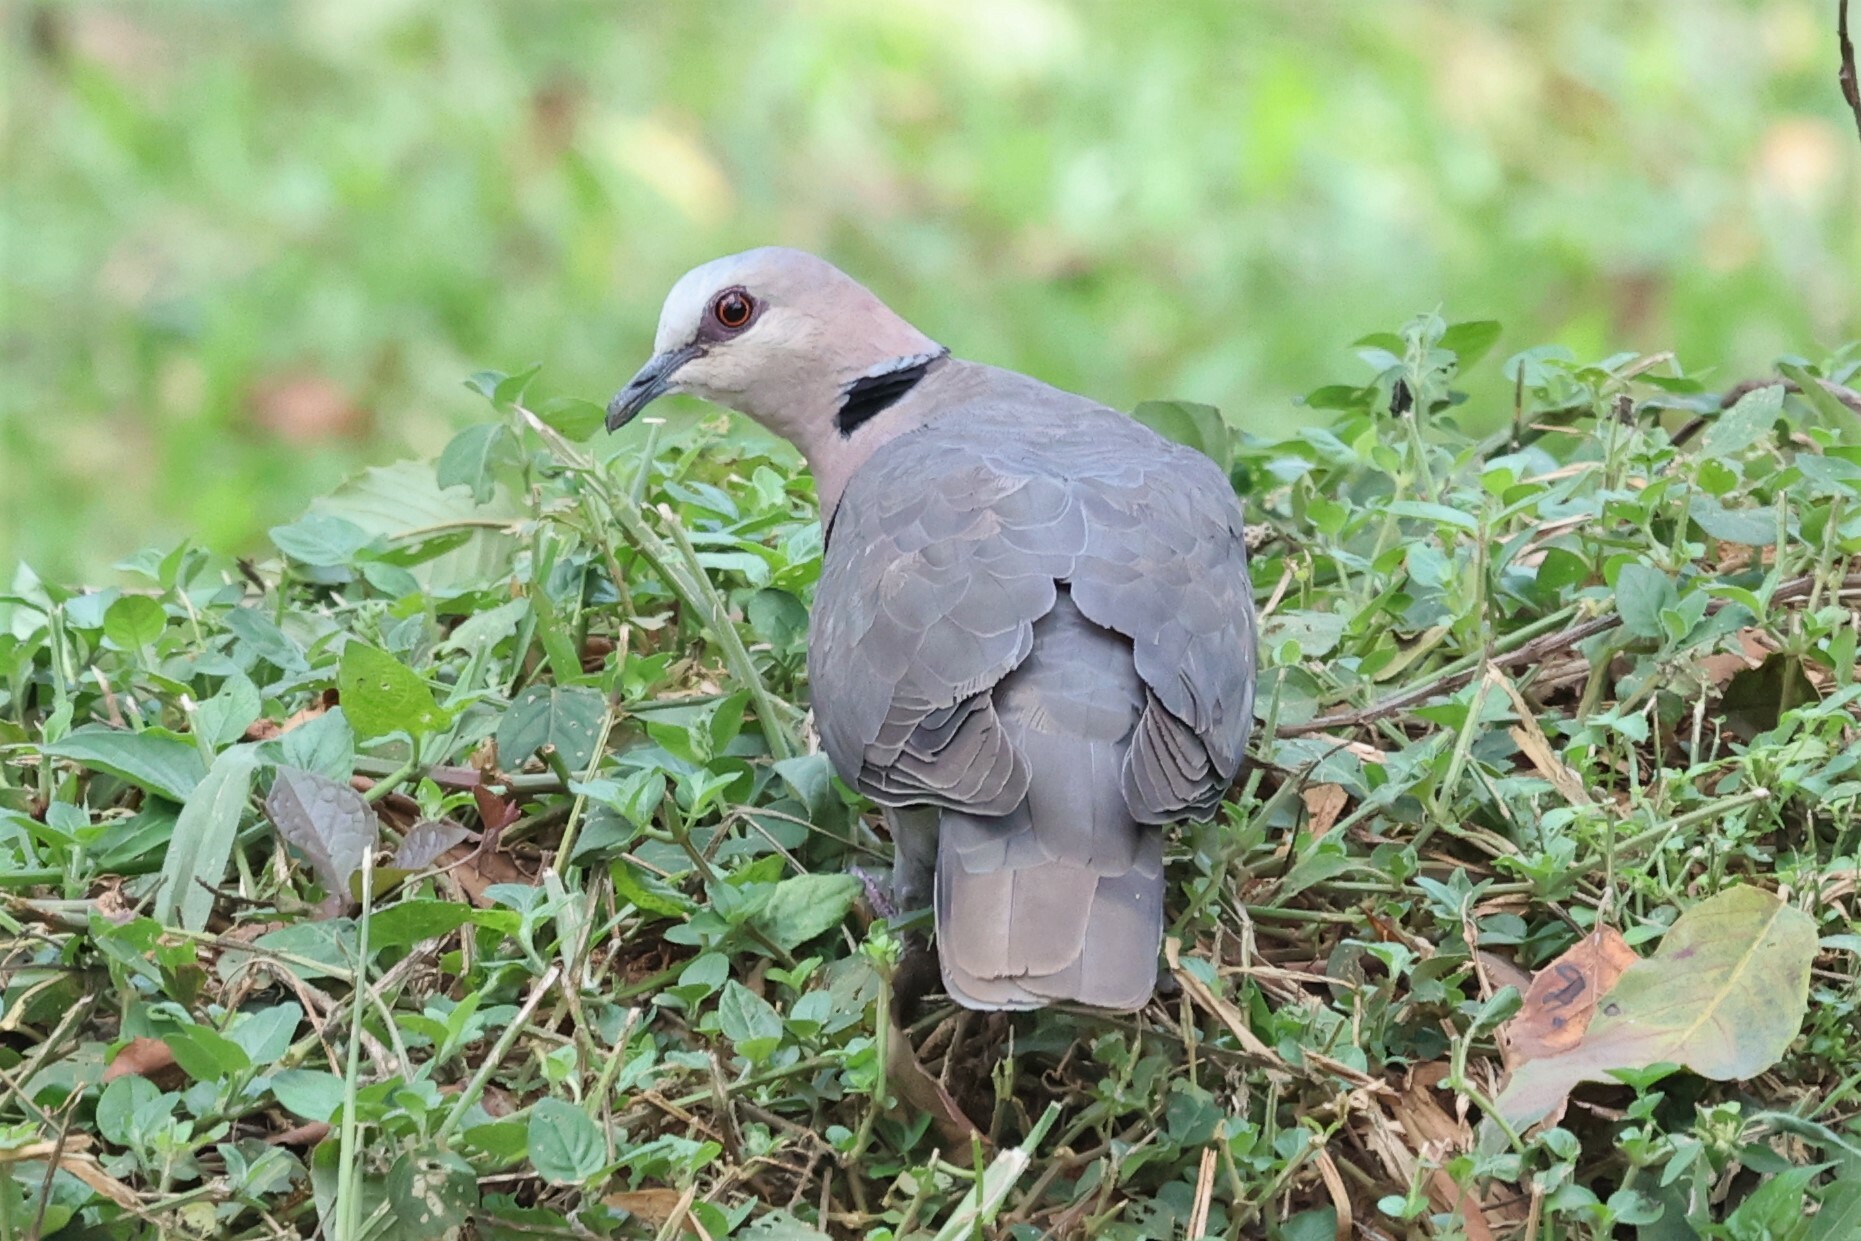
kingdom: Animalia
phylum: Chordata
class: Aves
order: Columbiformes
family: Columbidae
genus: Streptopelia
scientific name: Streptopelia semitorquata
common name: Red-eyed dove
